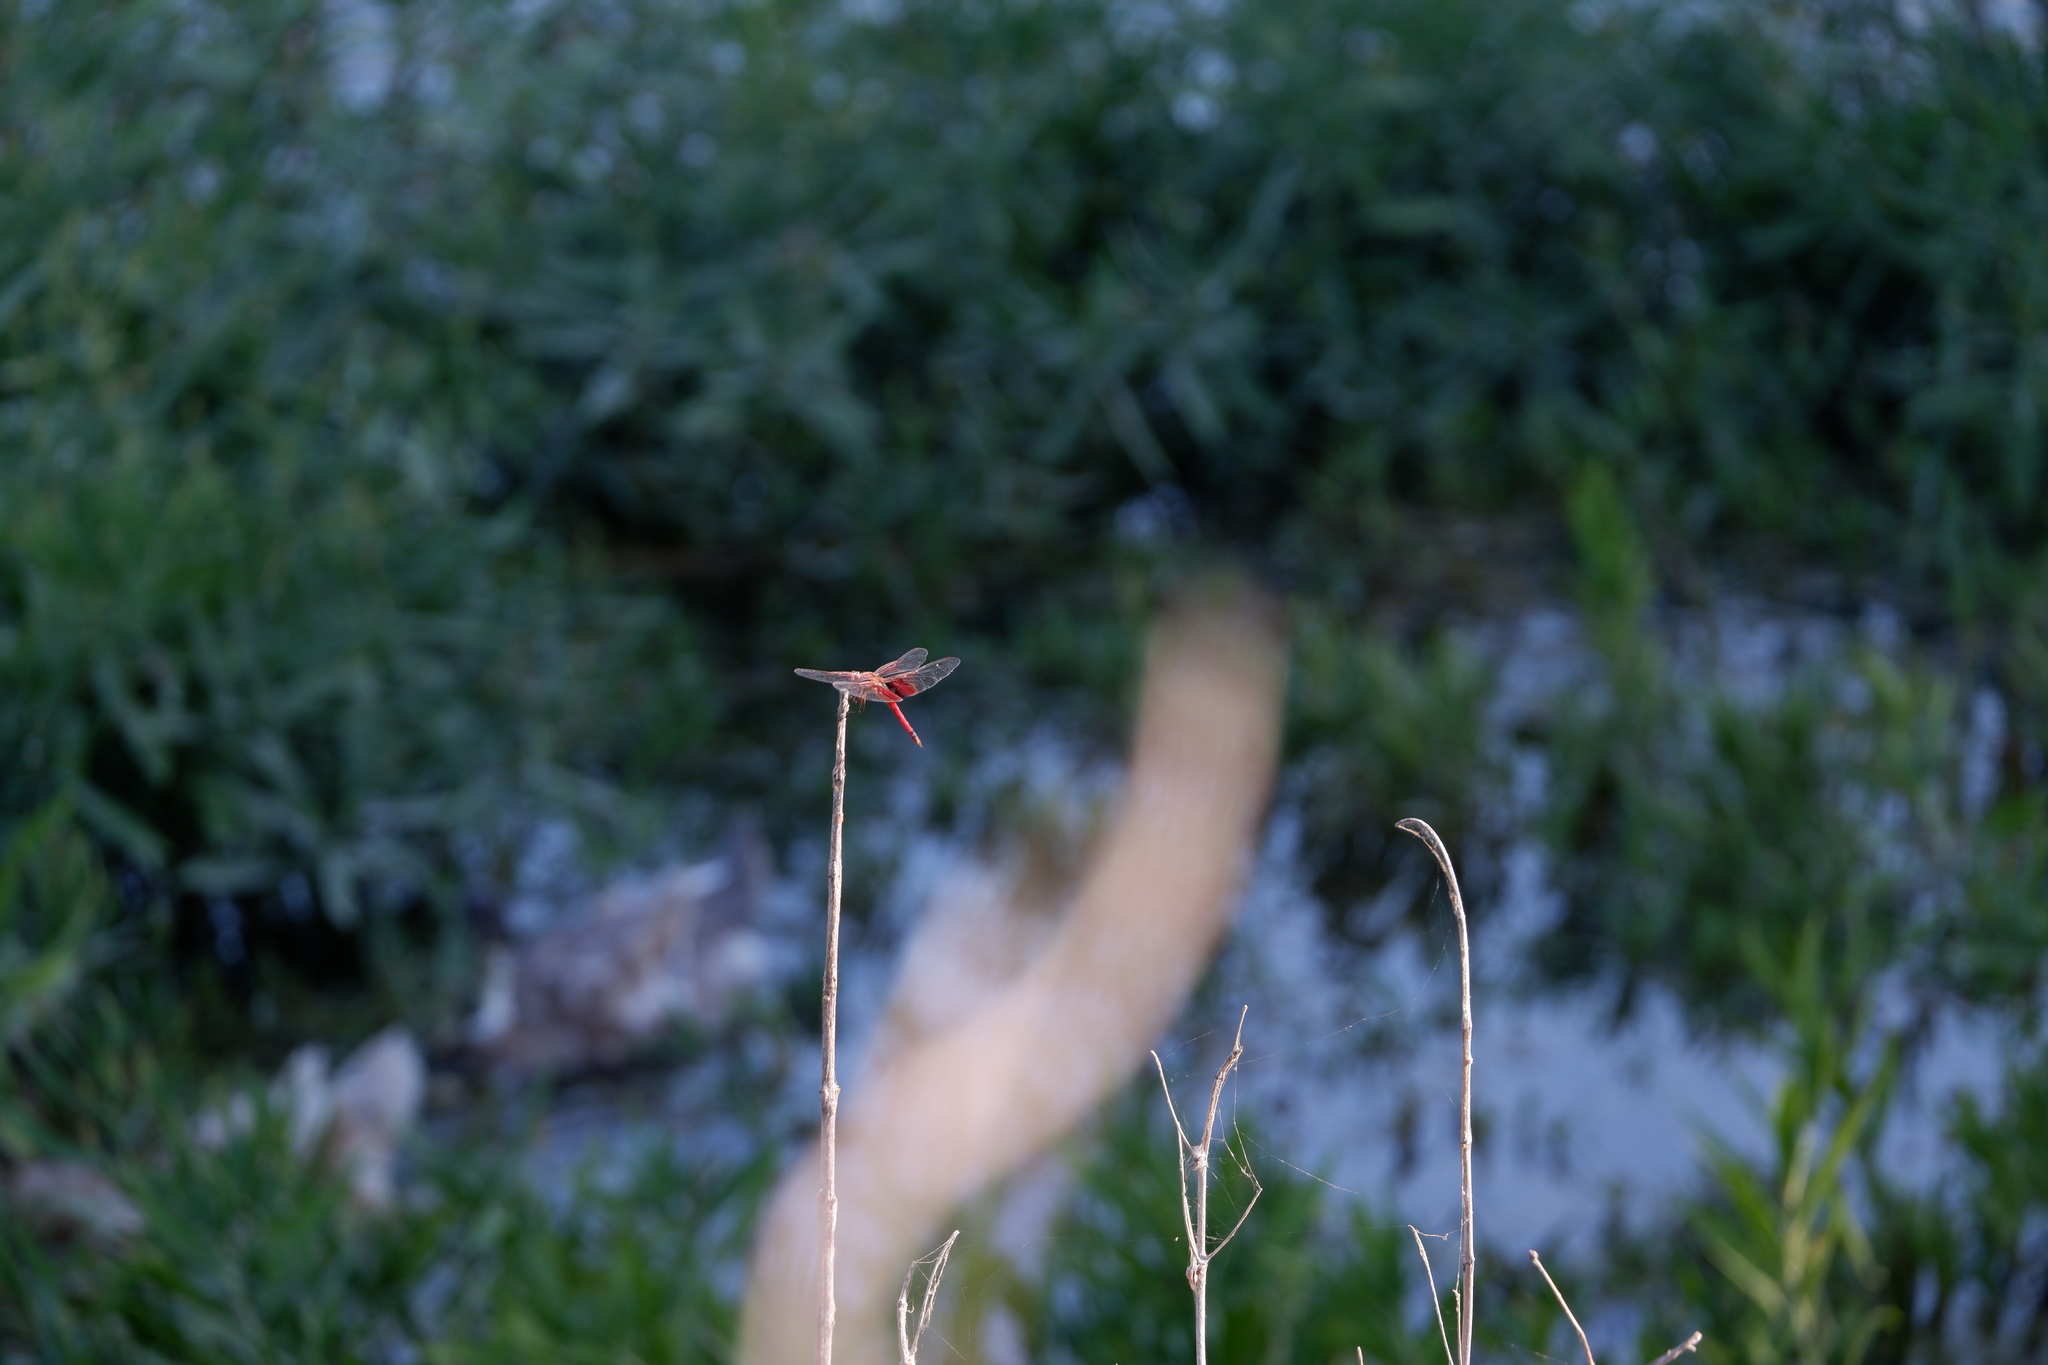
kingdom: Animalia
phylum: Arthropoda
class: Insecta
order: Odonata
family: Libellulidae
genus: Tramea
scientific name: Tramea onusta
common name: Red saddlebags
